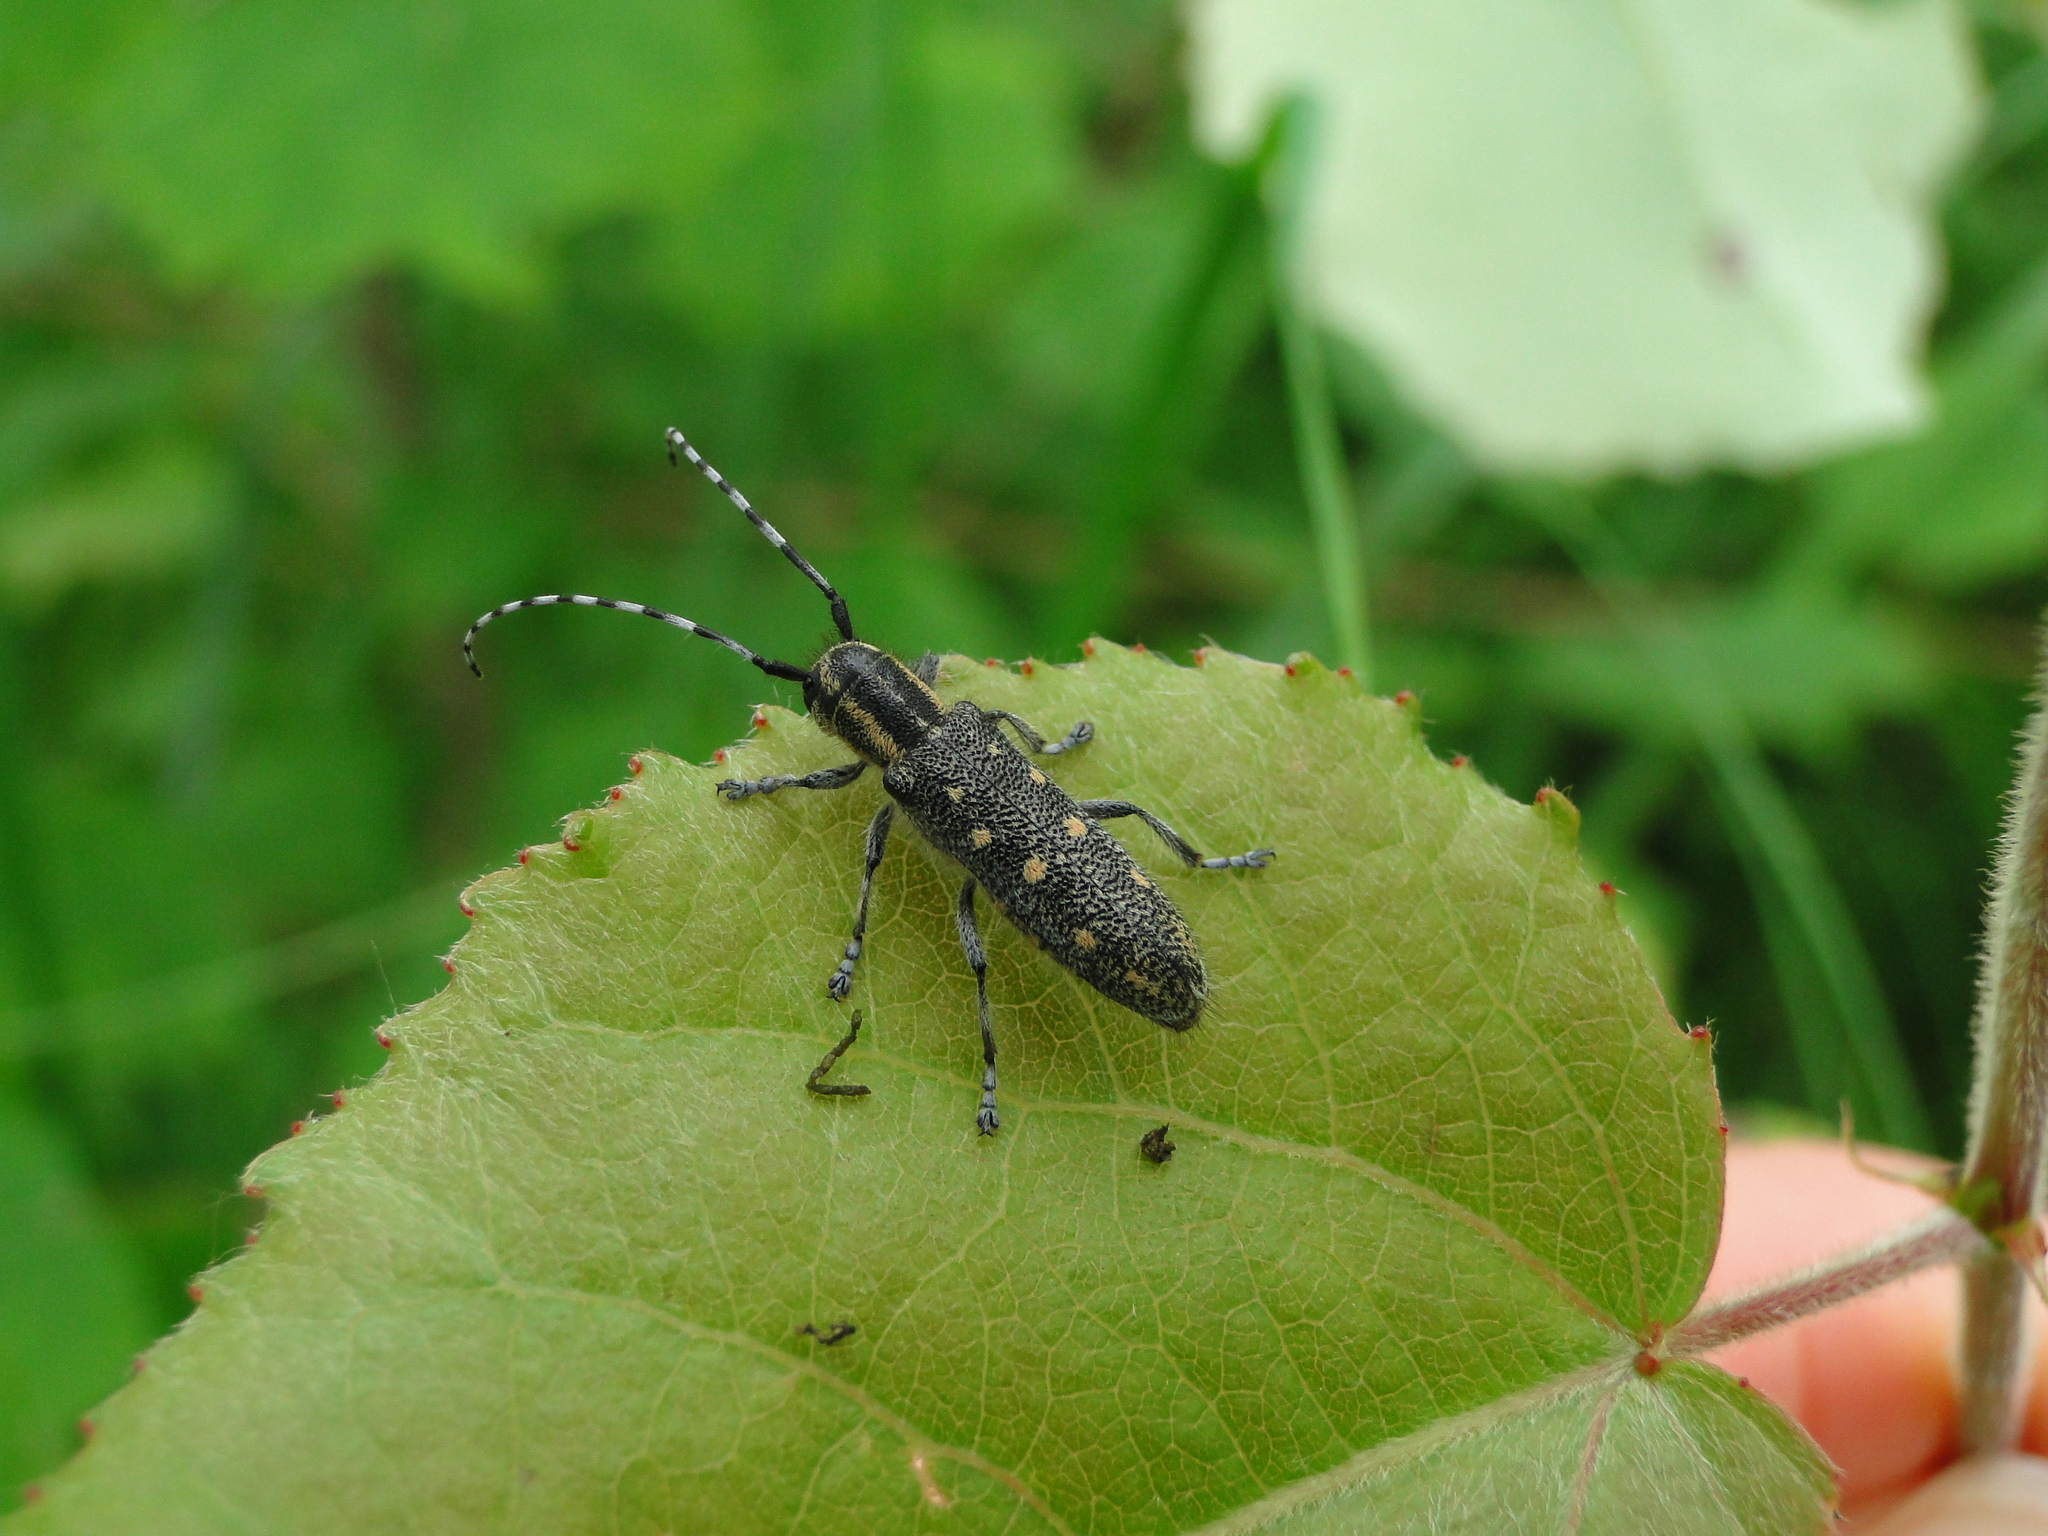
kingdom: Animalia
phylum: Arthropoda
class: Insecta
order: Coleoptera
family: Cerambycidae
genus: Saperda
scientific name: Saperda populnea
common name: Small poplar borer
